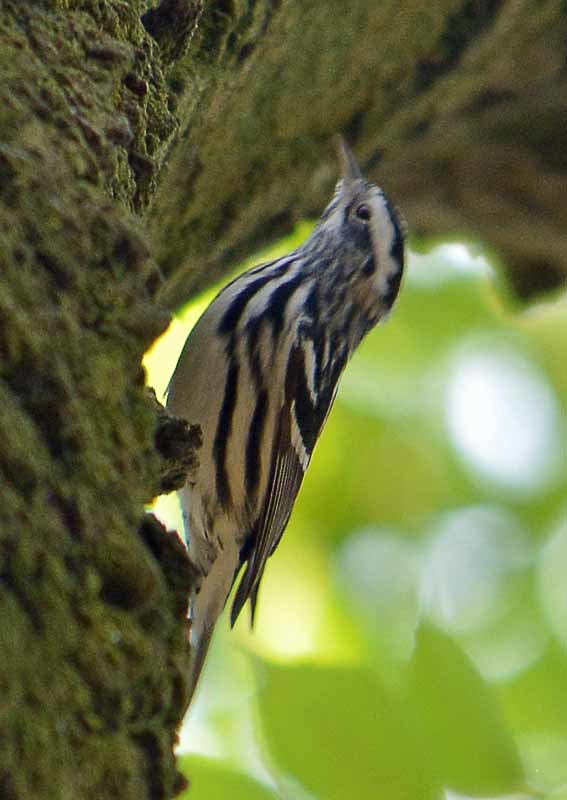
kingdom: Animalia
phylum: Chordata
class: Aves
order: Passeriformes
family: Parulidae
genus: Mniotilta
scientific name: Mniotilta varia
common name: Black-and-white warbler
